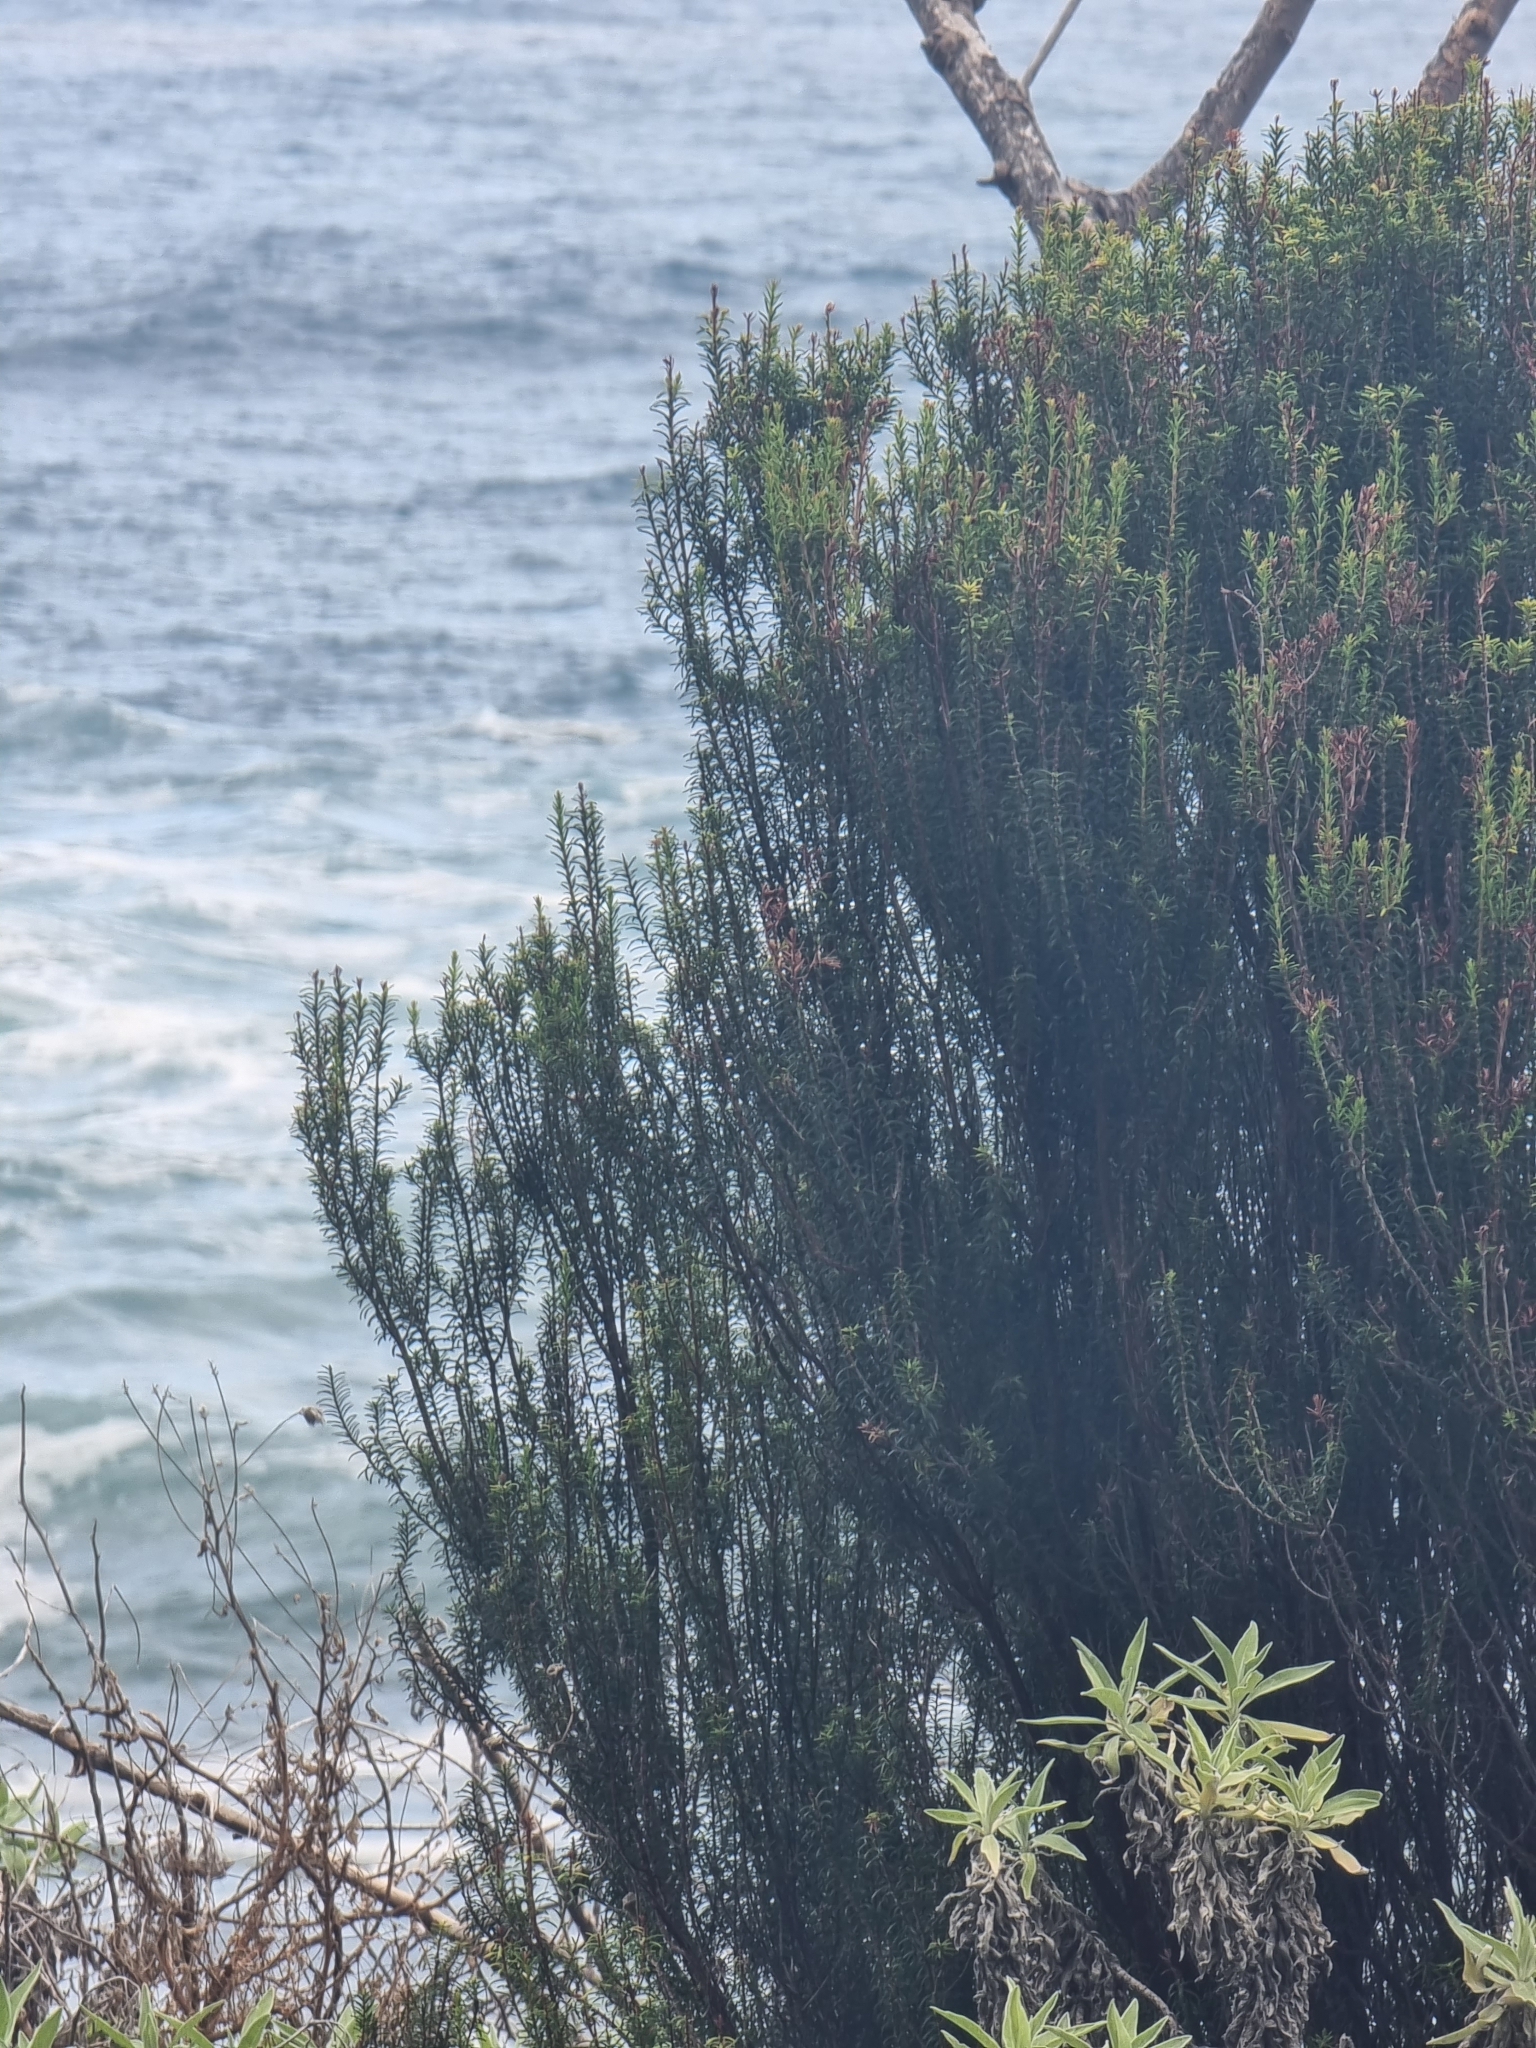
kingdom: Plantae
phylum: Tracheophyta
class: Magnoliopsida
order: Ericales
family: Ericaceae
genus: Erica
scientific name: Erica platycodon
